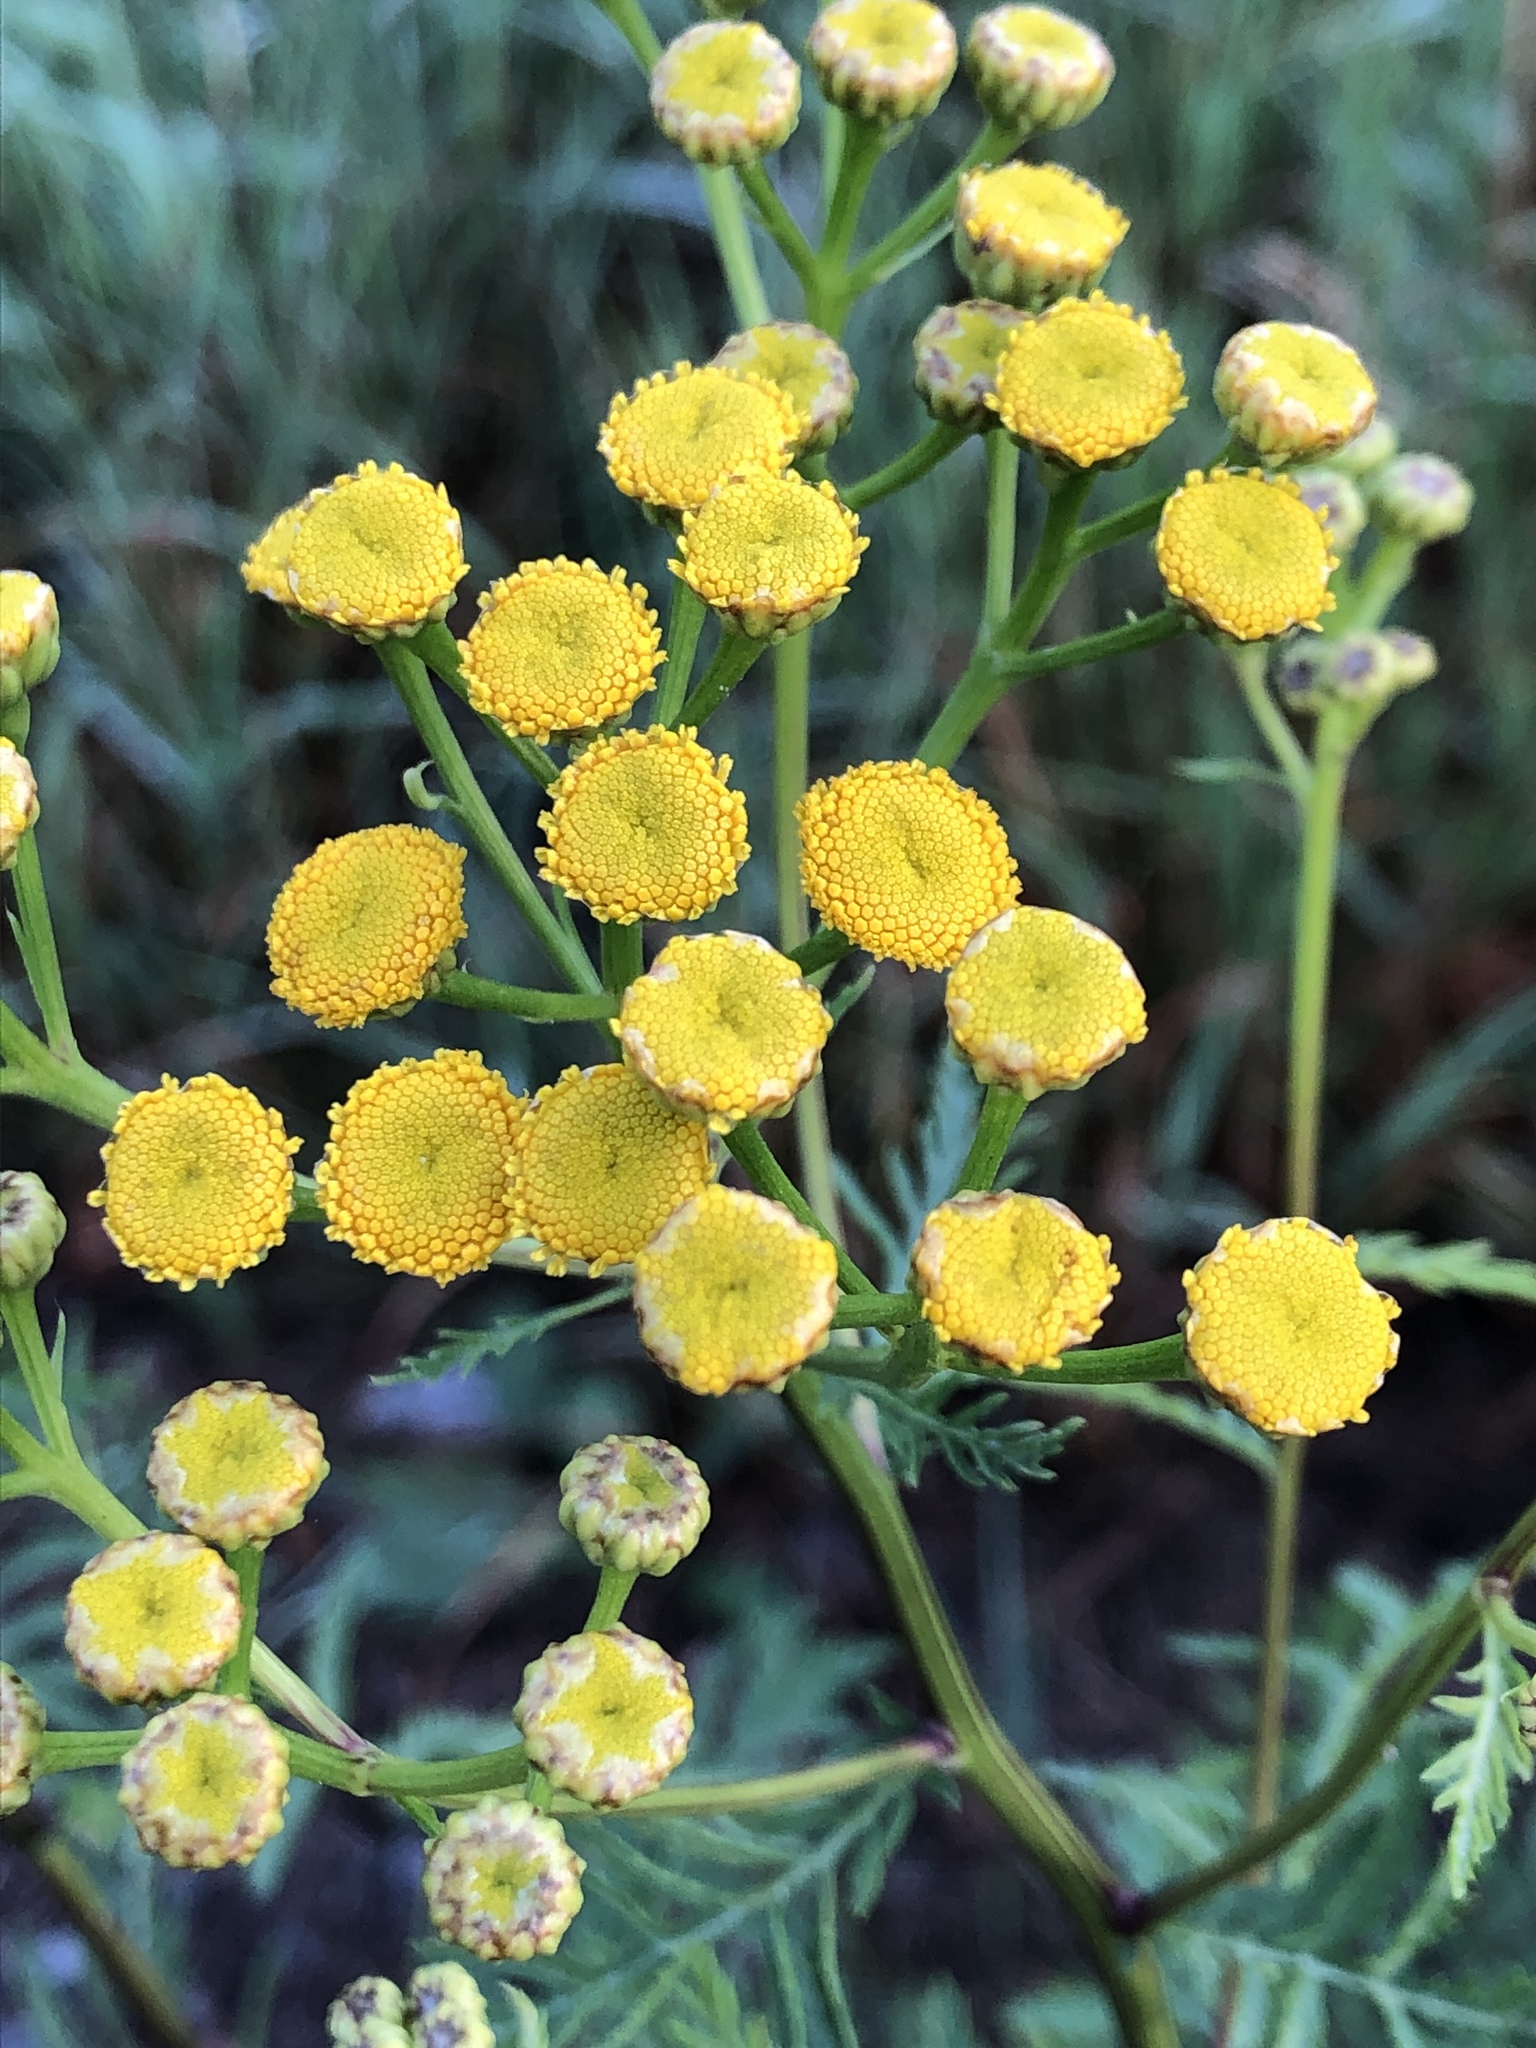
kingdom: Plantae
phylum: Tracheophyta
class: Magnoliopsida
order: Asterales
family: Asteraceae
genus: Tanacetum
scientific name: Tanacetum vulgare
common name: Common tansy
